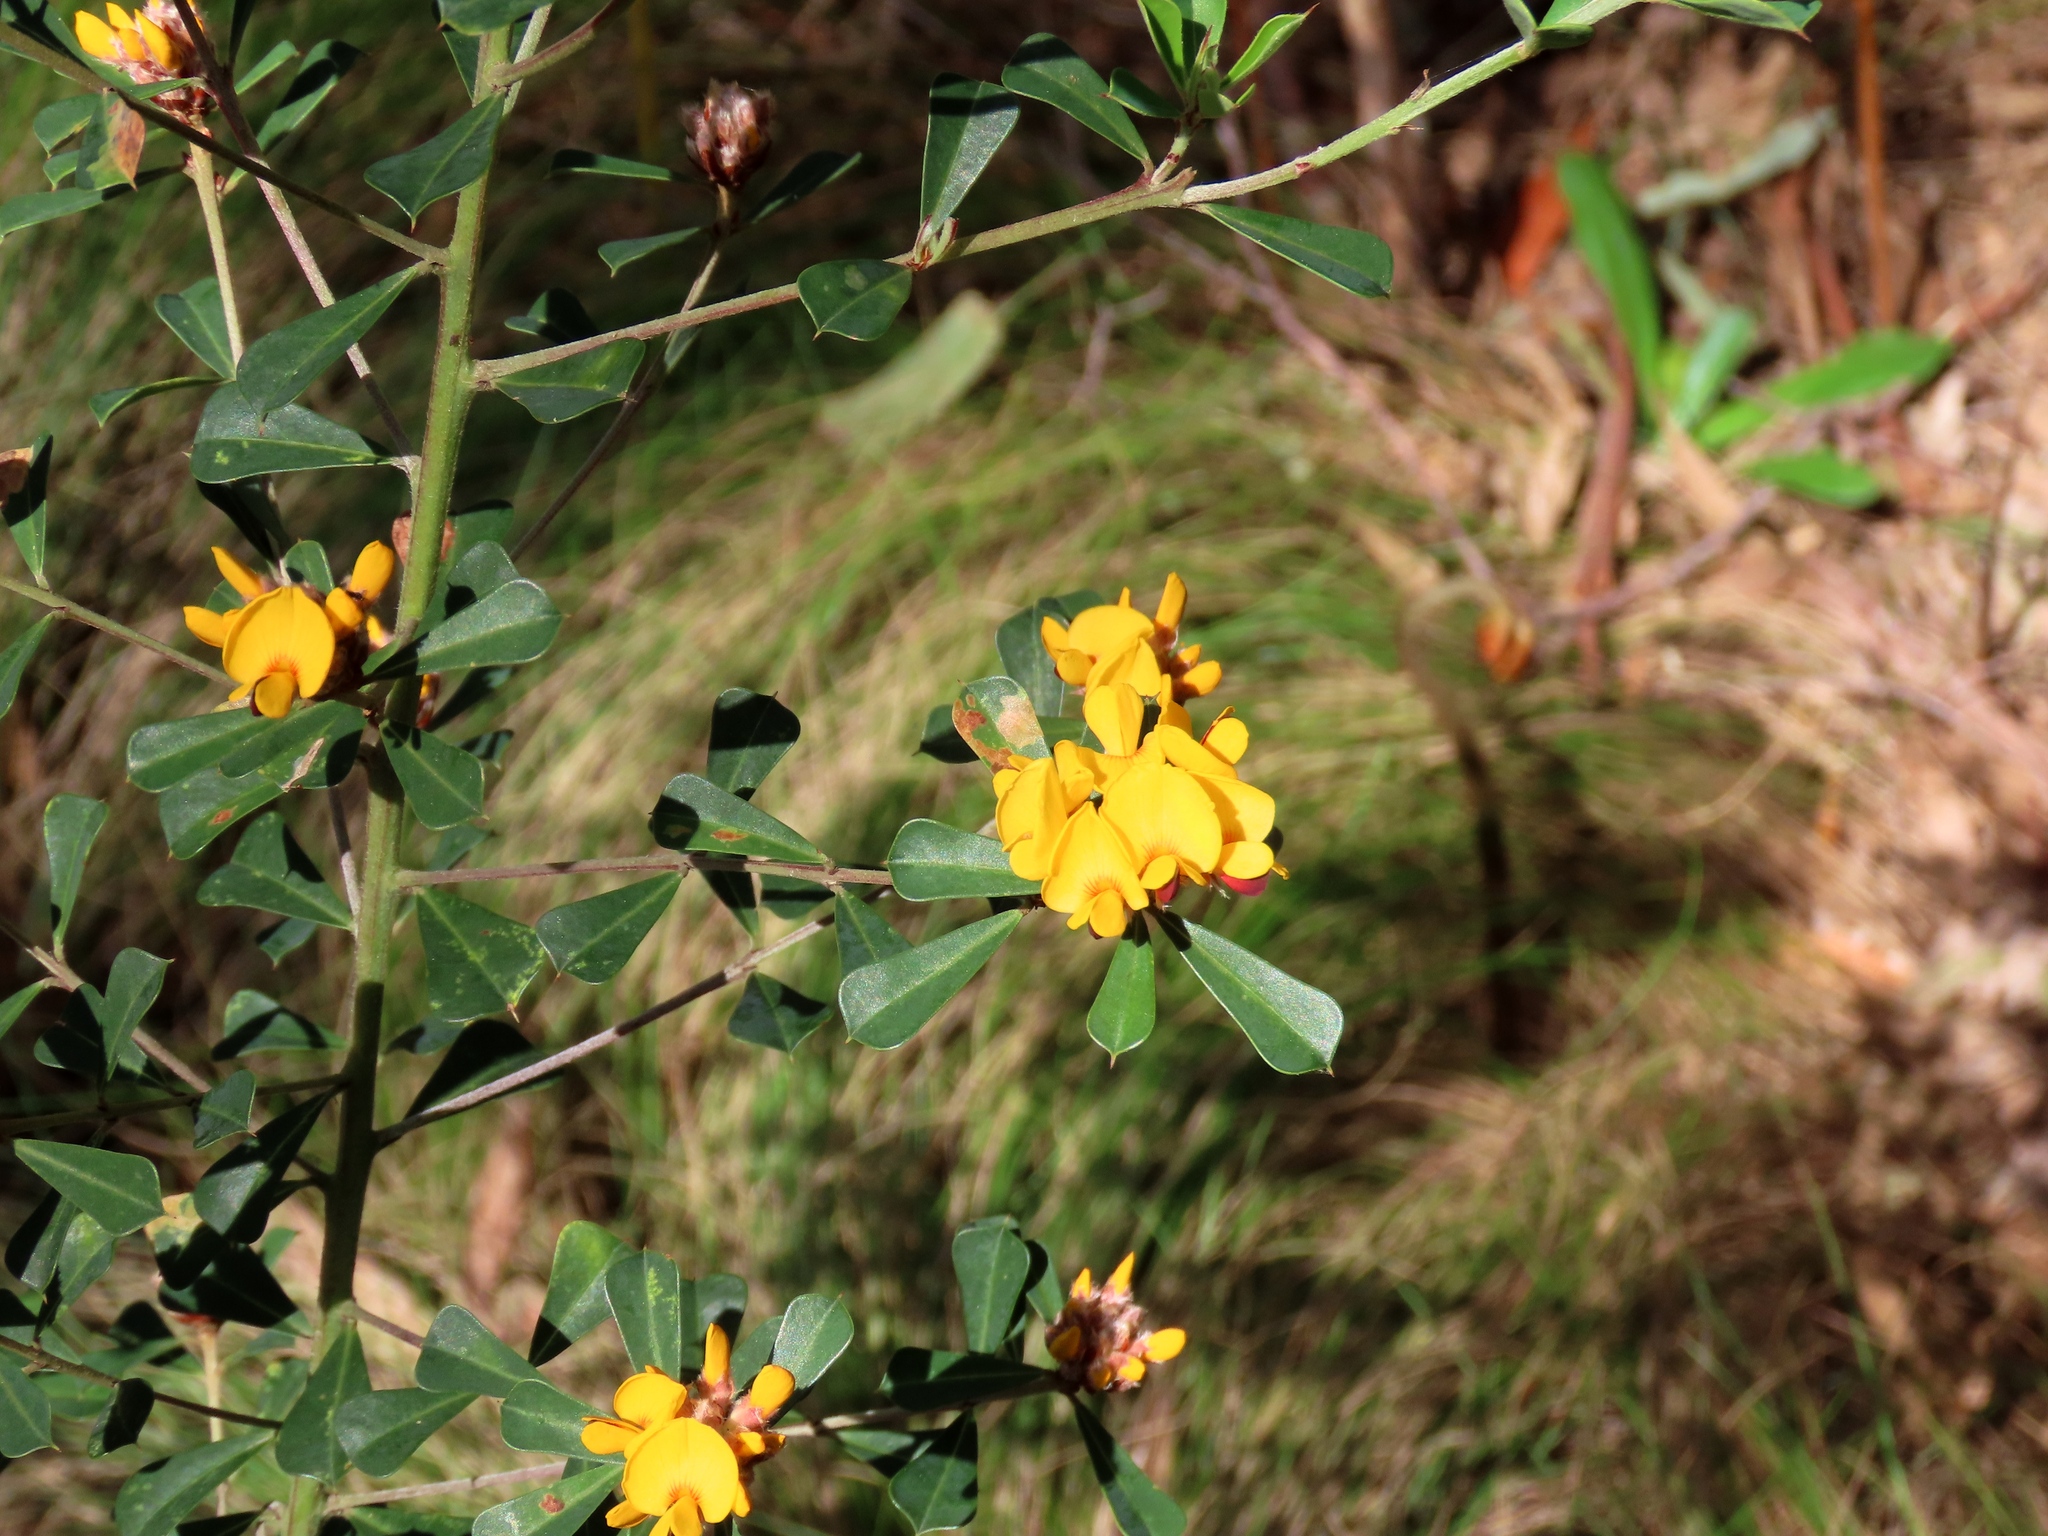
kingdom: Plantae
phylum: Tracheophyta
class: Magnoliopsida
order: Fabales
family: Fabaceae
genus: Pultenaea
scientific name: Pultenaea daphnoides
